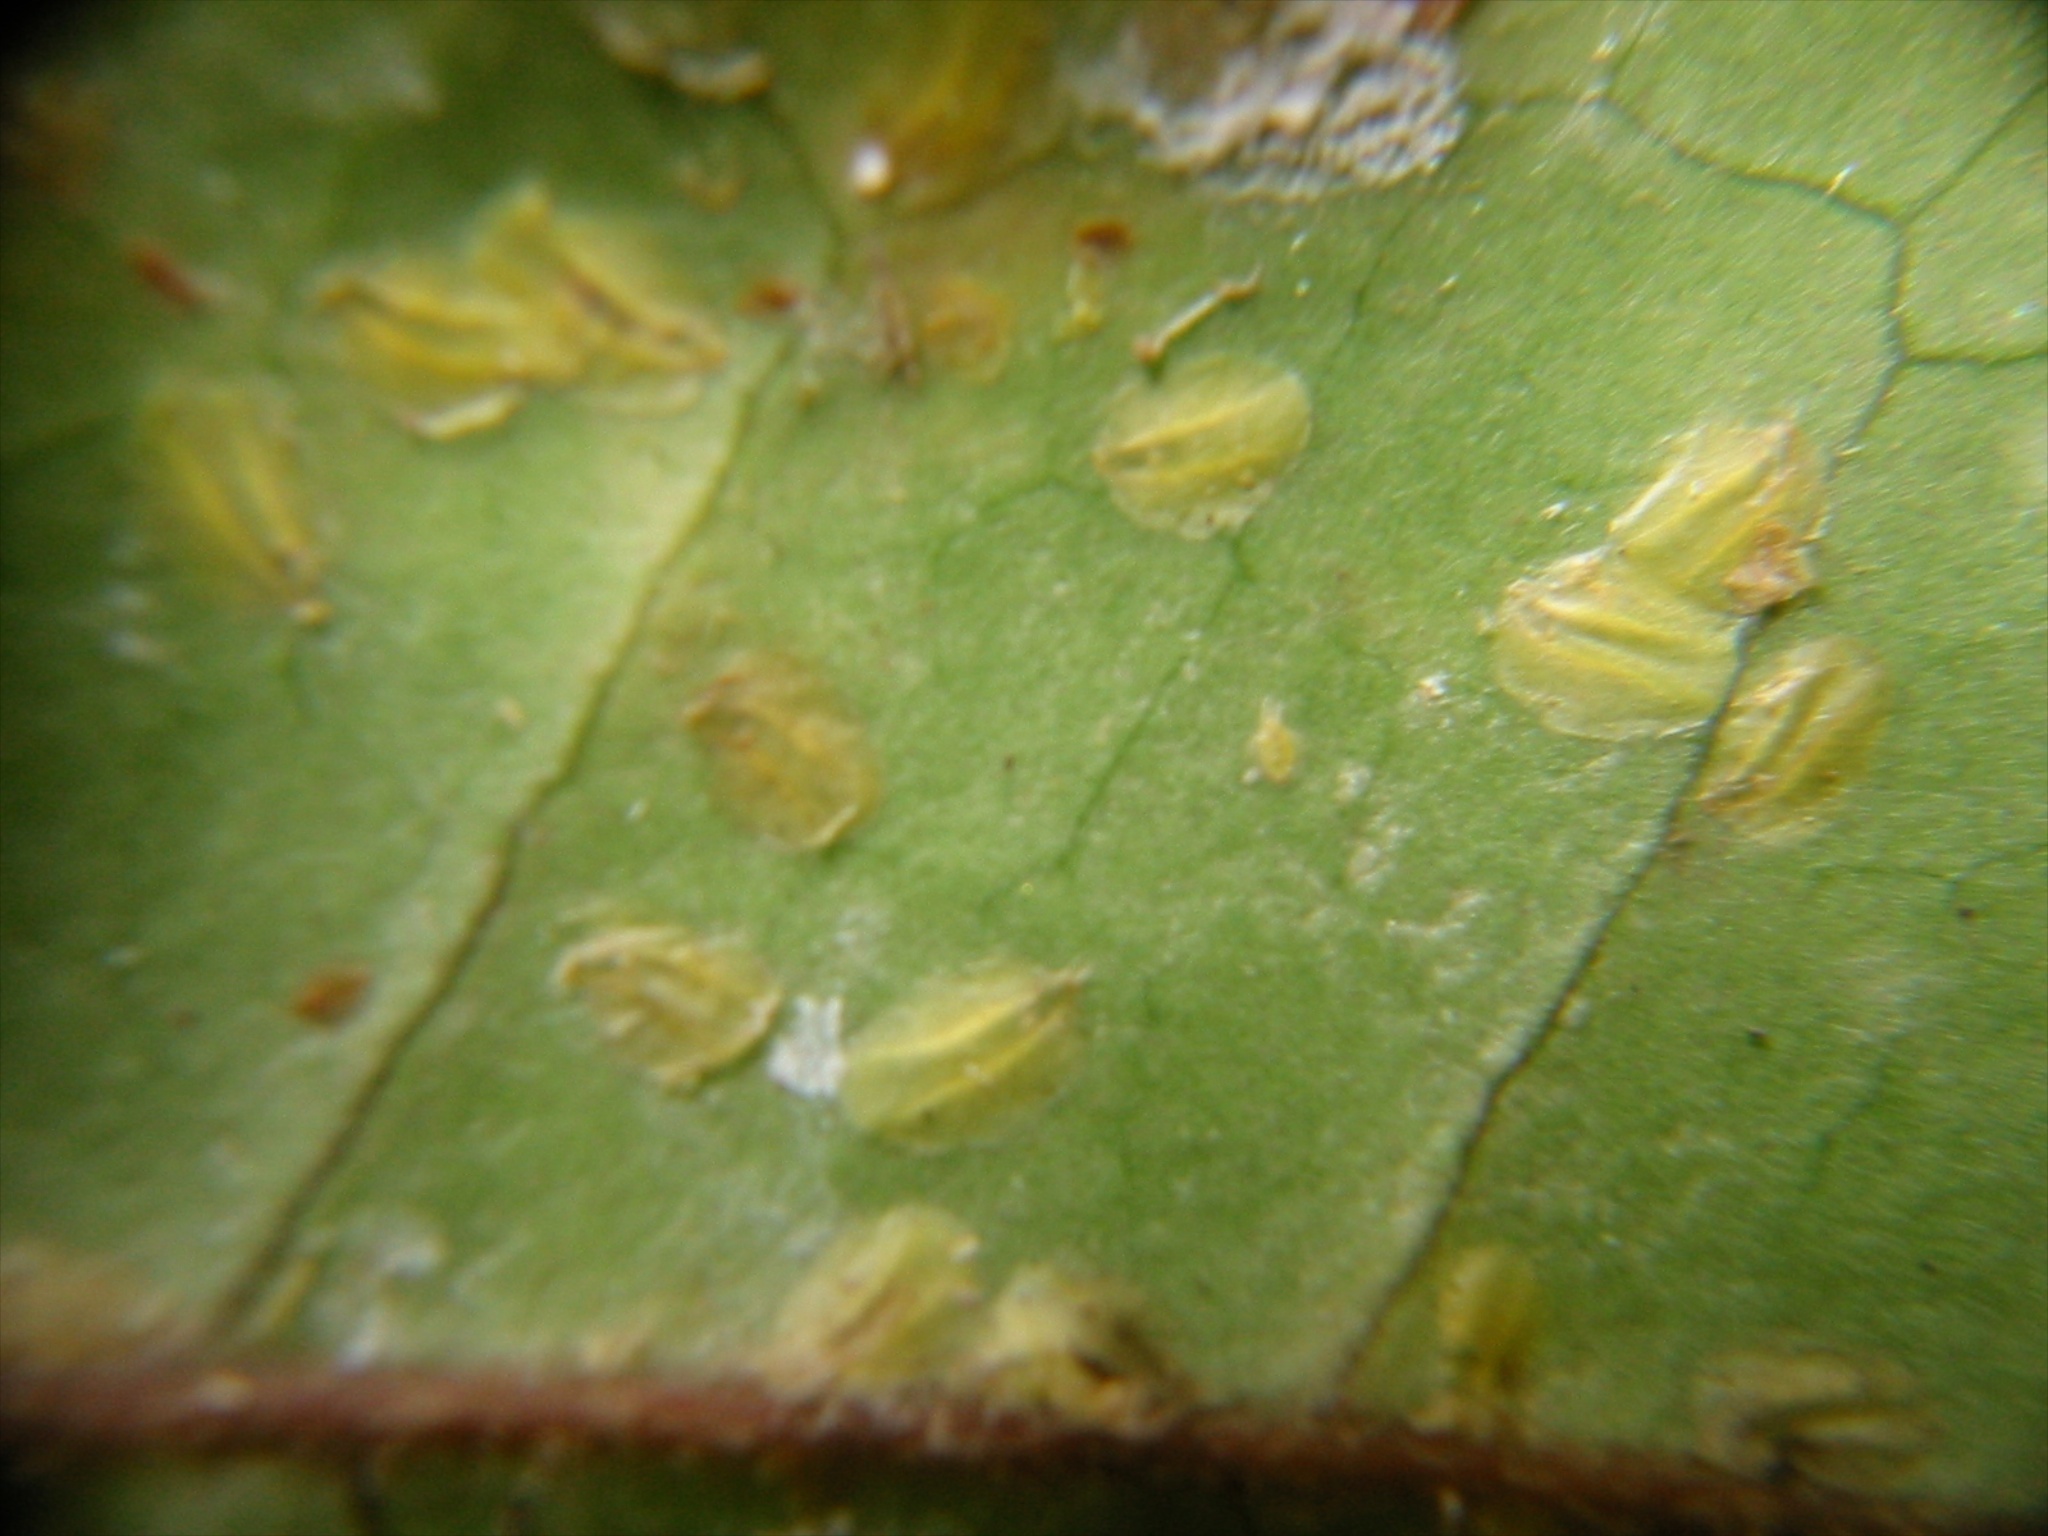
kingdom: Animalia
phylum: Arthropoda
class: Insecta
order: Hemiptera
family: Diaspididae
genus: Leucaspis
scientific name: Leucaspis gigas
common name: Keikie scale
